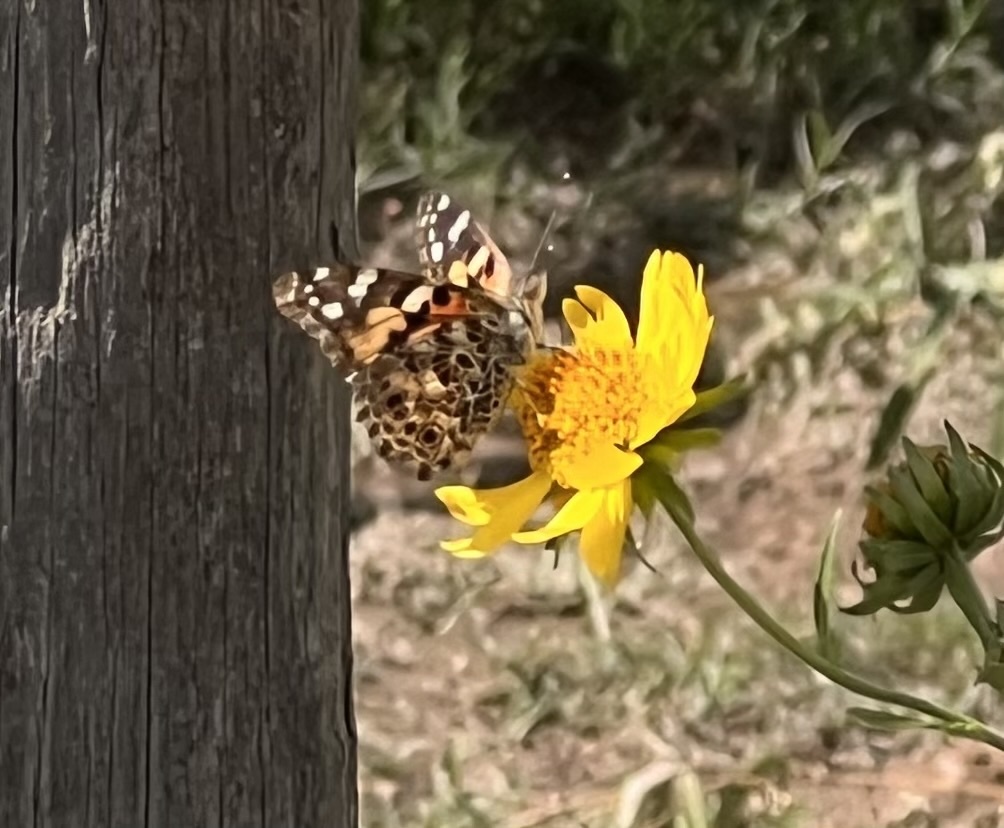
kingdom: Animalia
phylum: Arthropoda
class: Insecta
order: Lepidoptera
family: Nymphalidae
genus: Vanessa
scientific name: Vanessa cardui
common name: Painted lady
